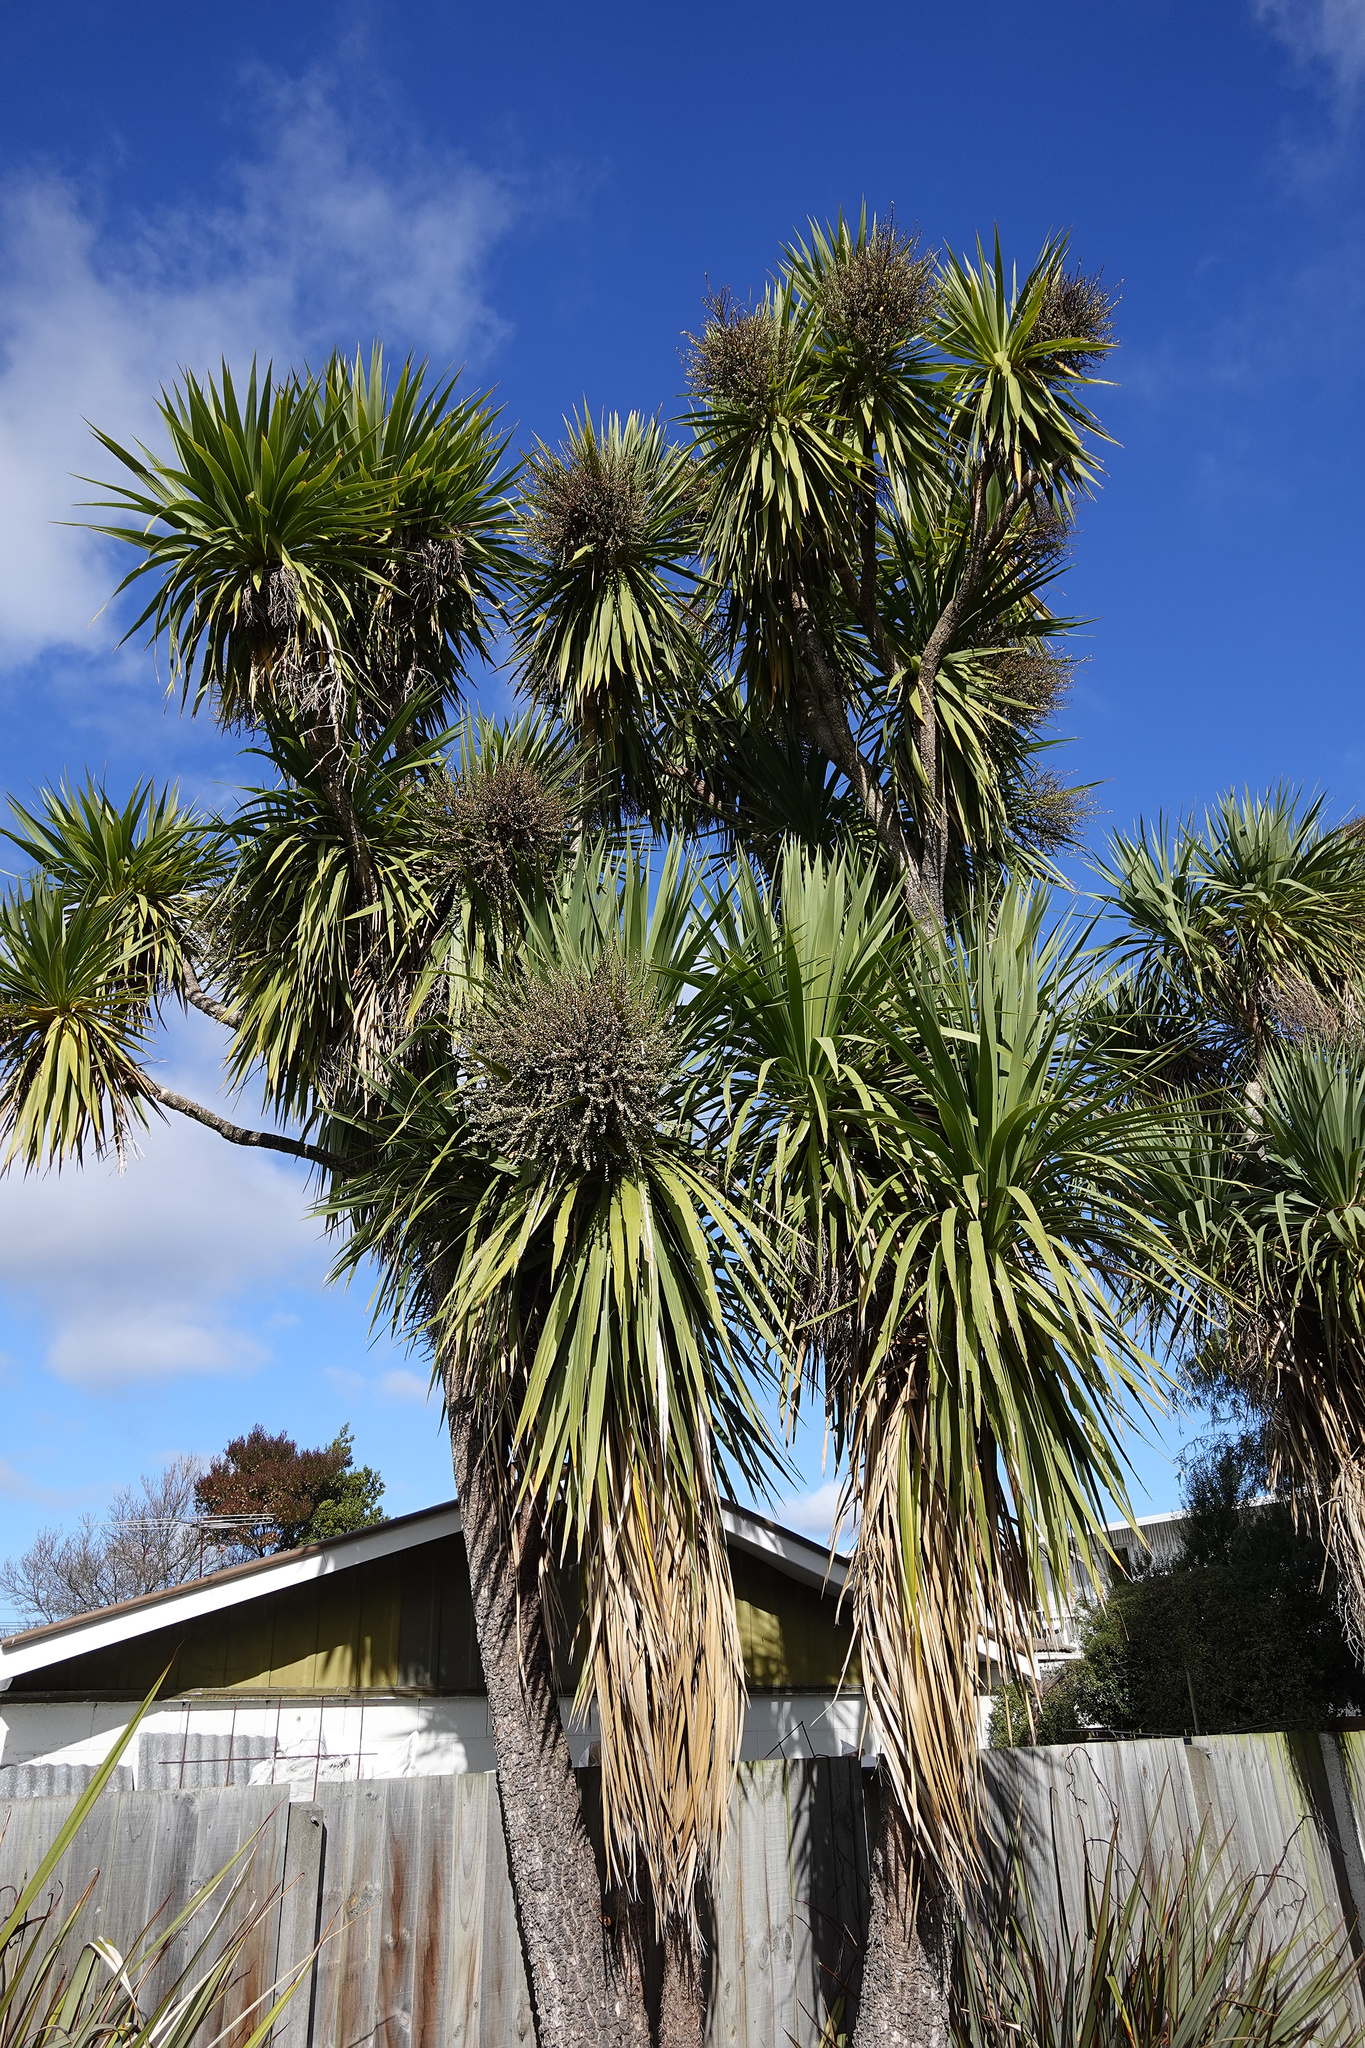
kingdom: Plantae
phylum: Tracheophyta
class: Liliopsida
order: Asparagales
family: Asparagaceae
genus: Cordyline
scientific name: Cordyline australis
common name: Cabbage-palm
